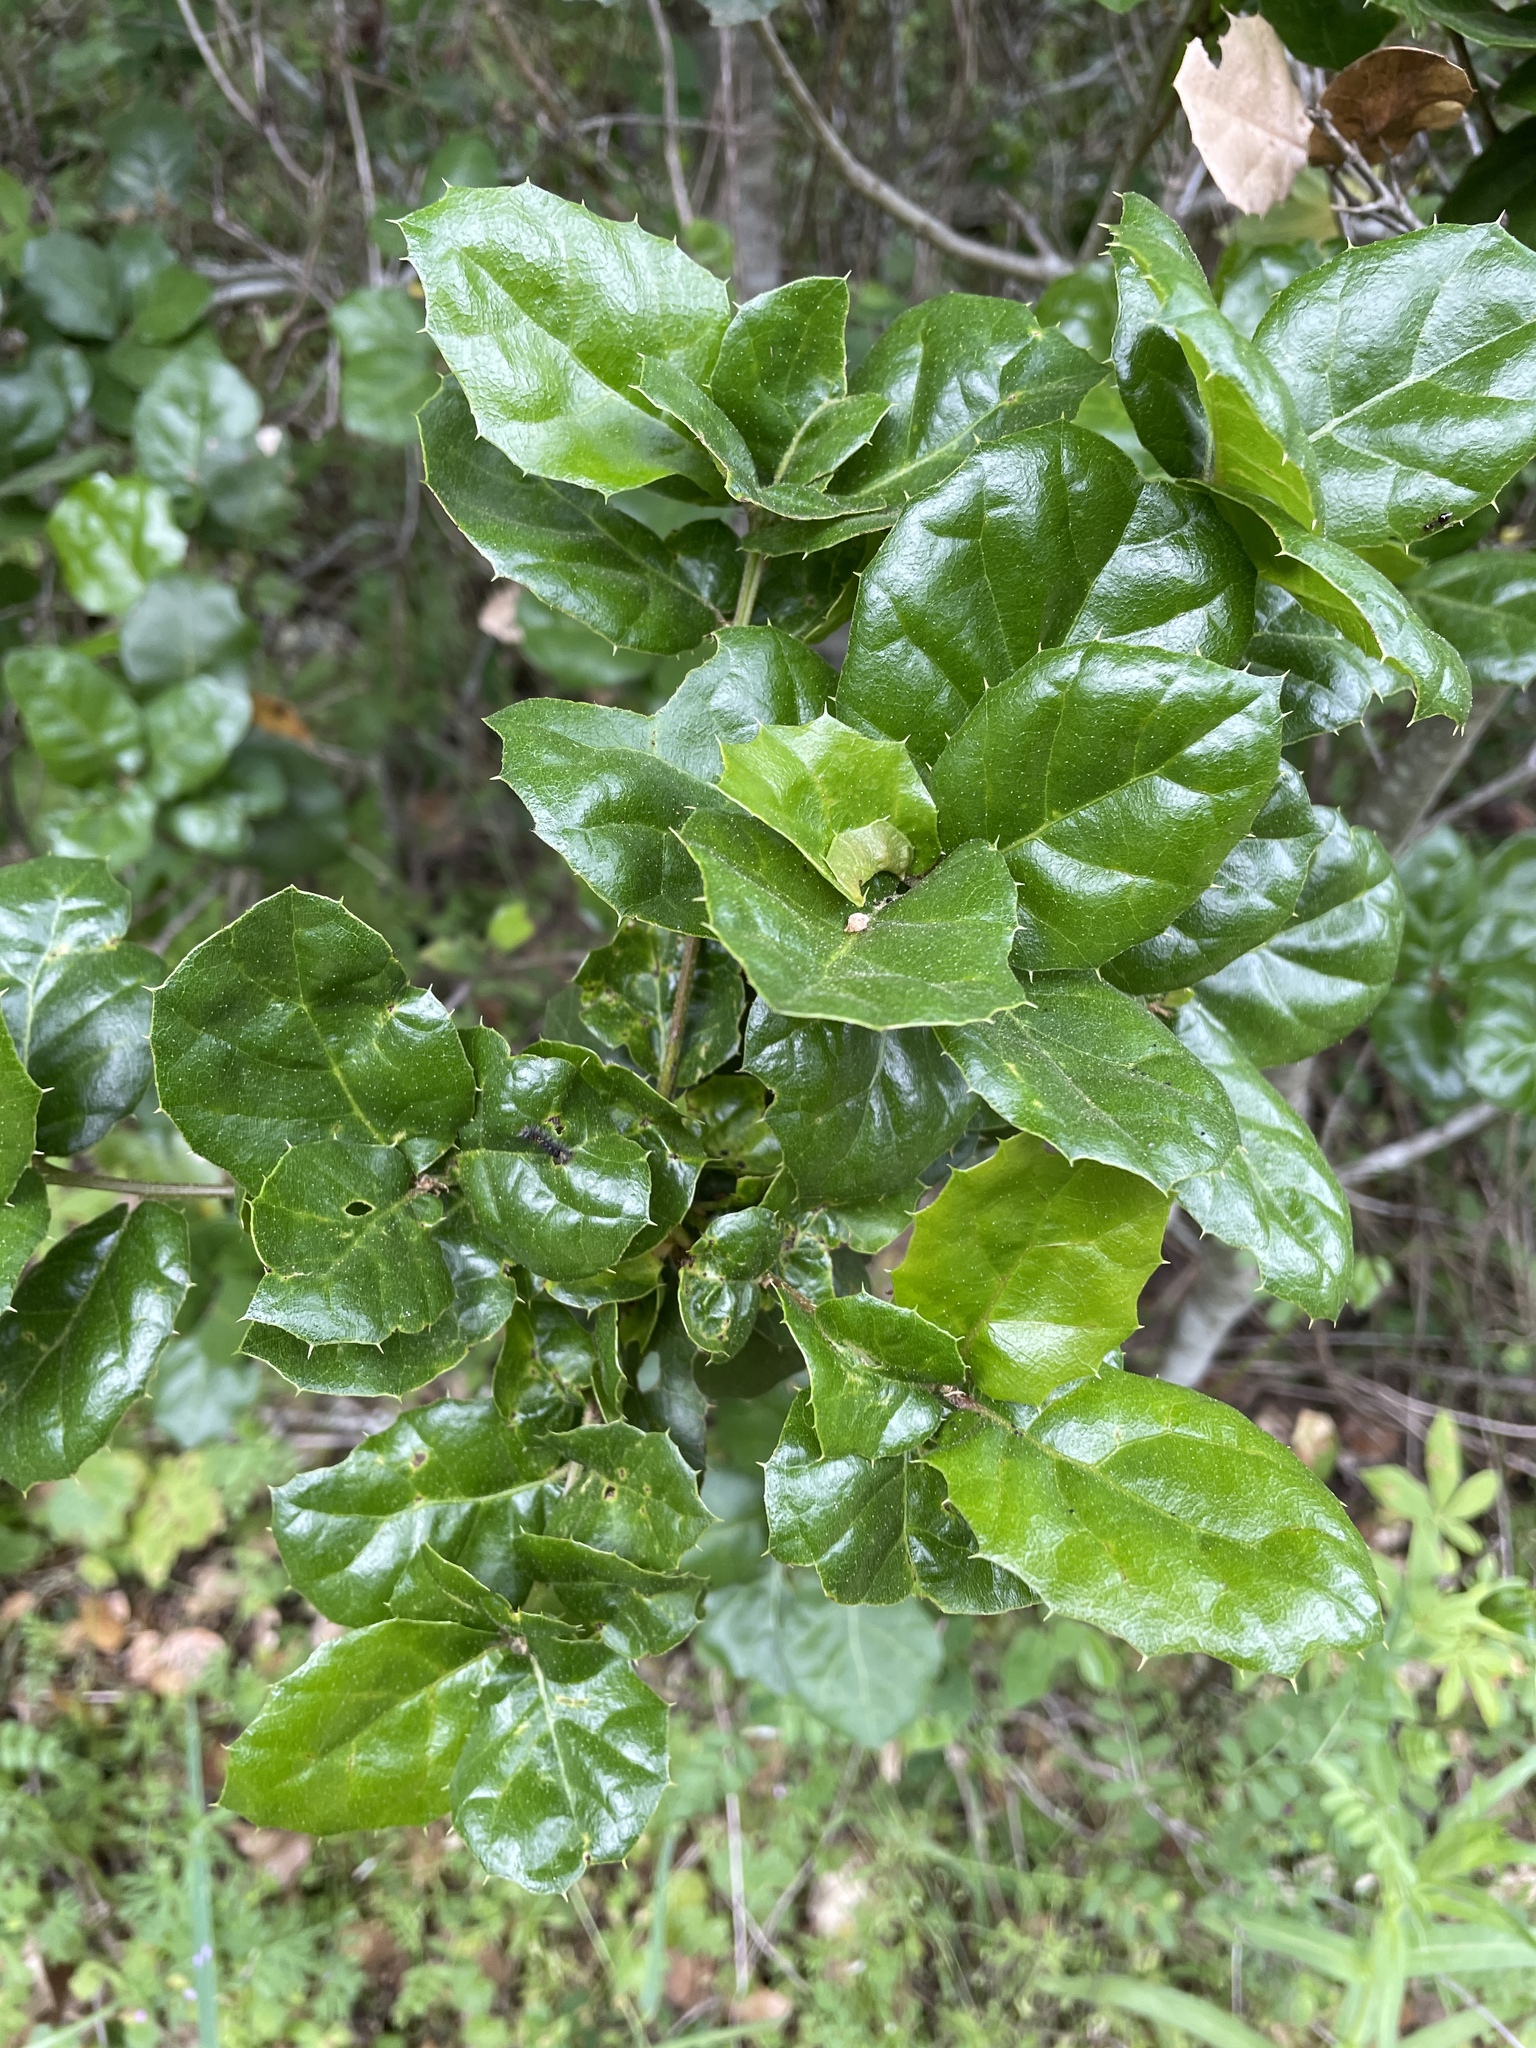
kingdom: Plantae
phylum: Tracheophyta
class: Magnoliopsida
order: Fagales
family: Fagaceae
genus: Quercus
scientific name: Quercus agrifolia
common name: California live oak
